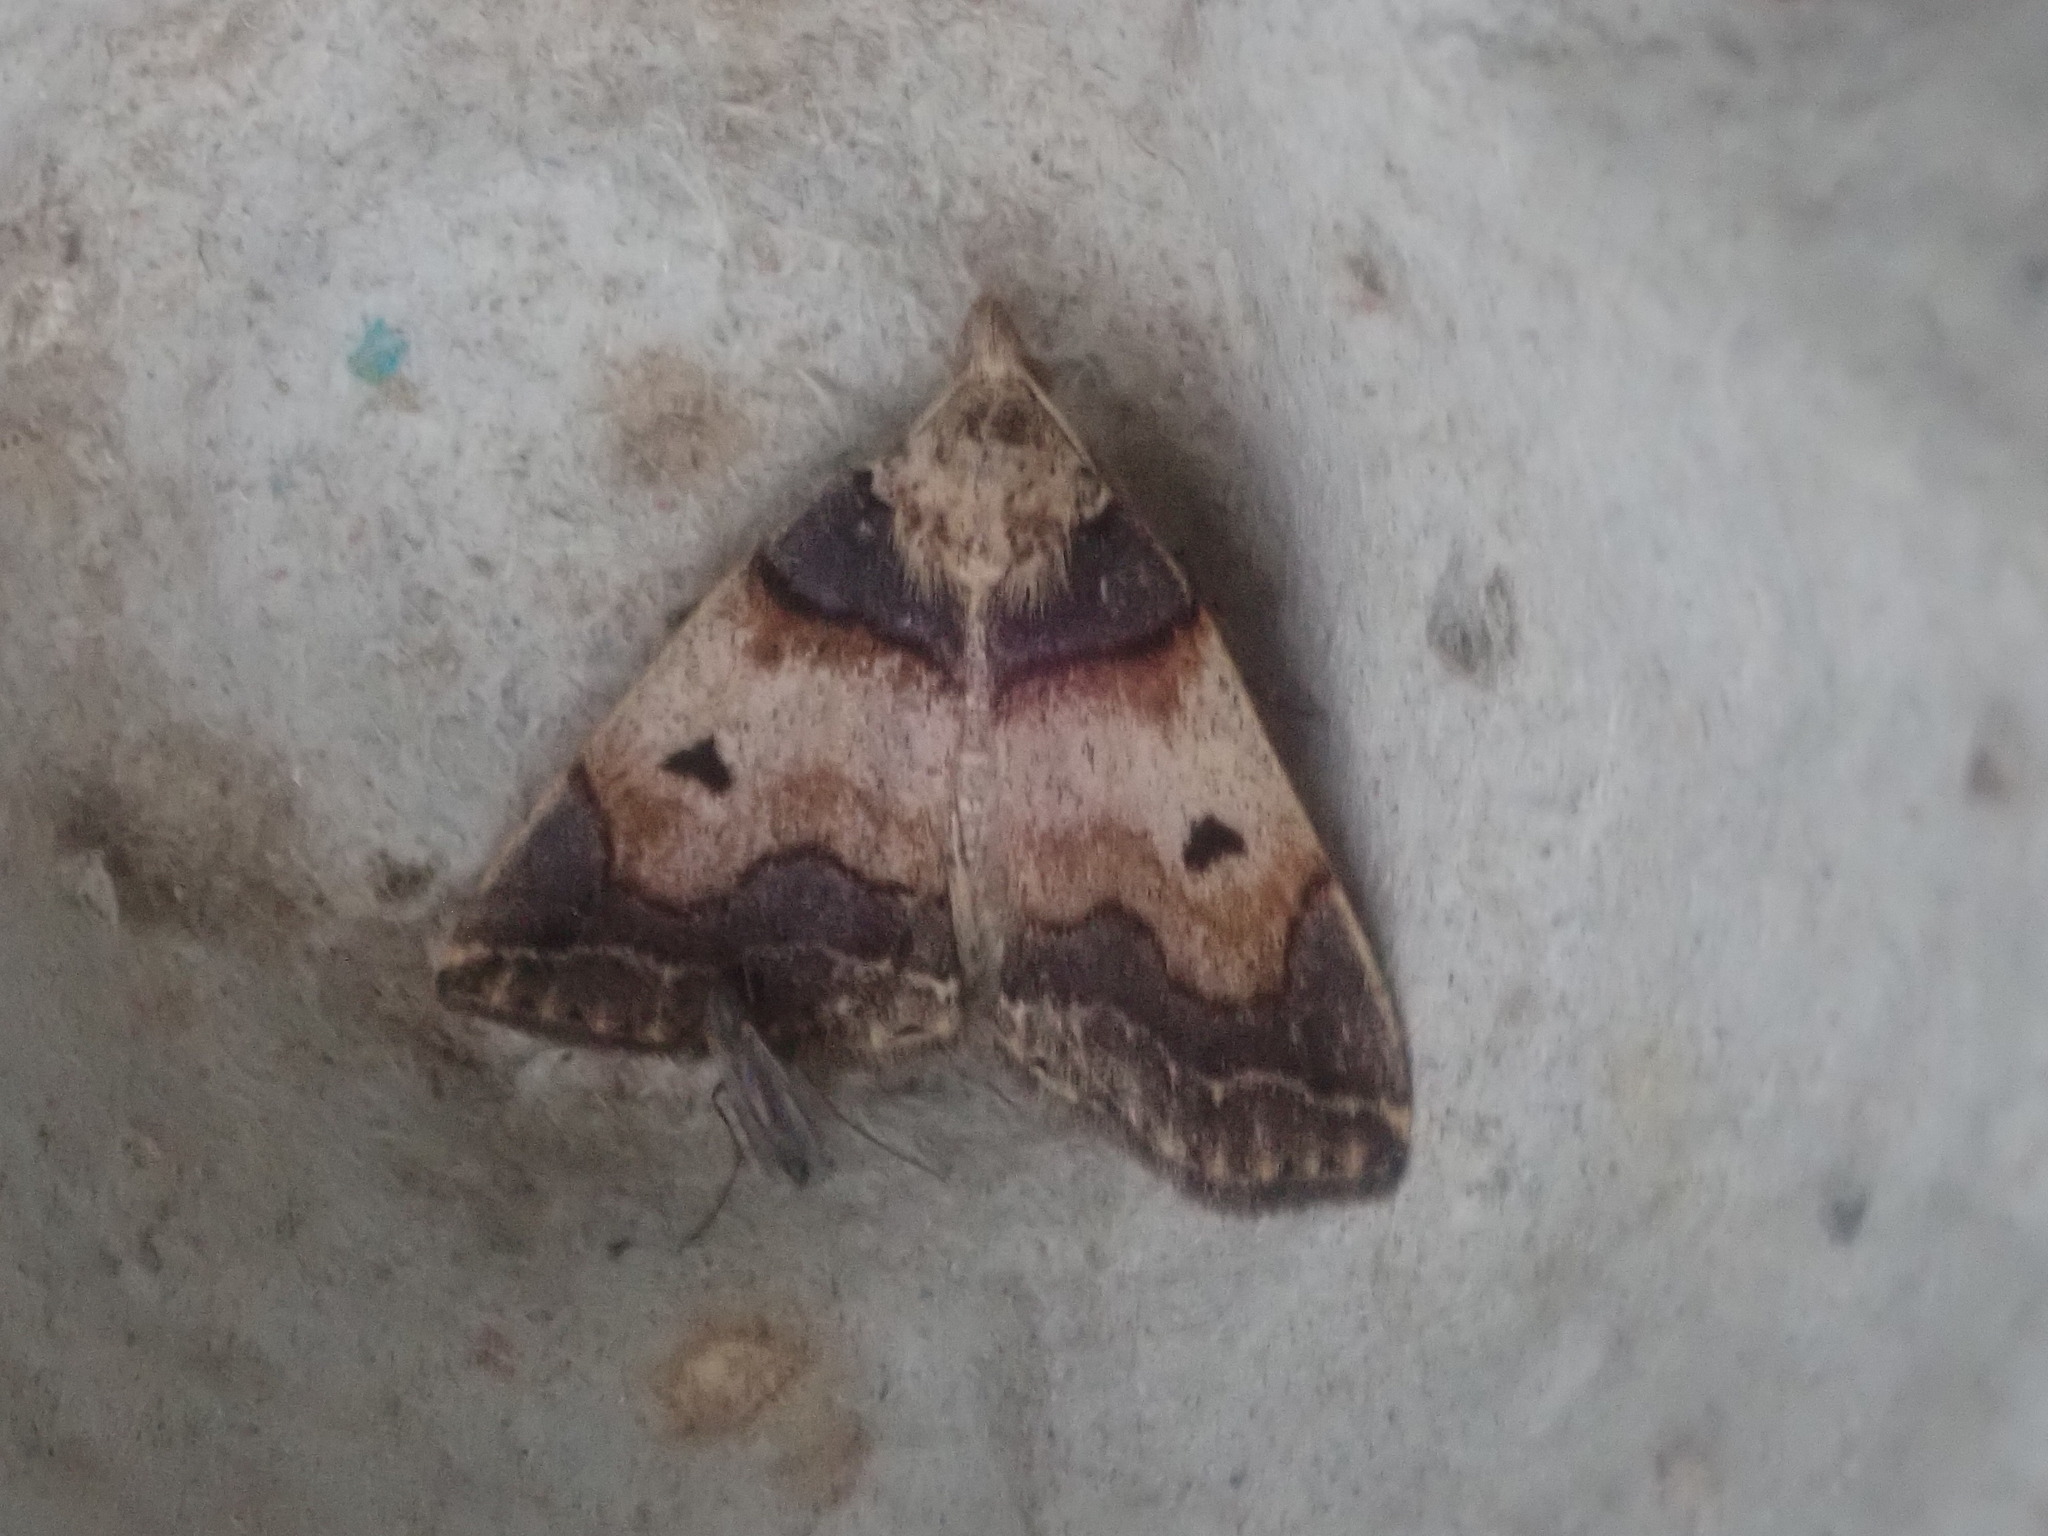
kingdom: Animalia
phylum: Arthropoda
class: Insecta
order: Lepidoptera
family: Erebidae
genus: Zanclognatha
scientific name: Zanclognatha laevigata
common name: Variable fan-foot
